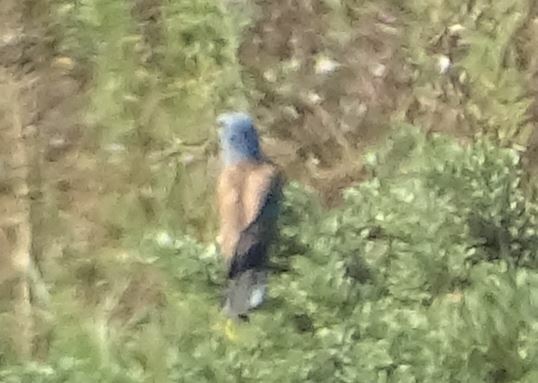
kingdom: Animalia
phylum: Chordata
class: Aves
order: Coraciiformes
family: Coraciidae
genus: Coracias
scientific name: Coracias garrulus
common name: European roller
